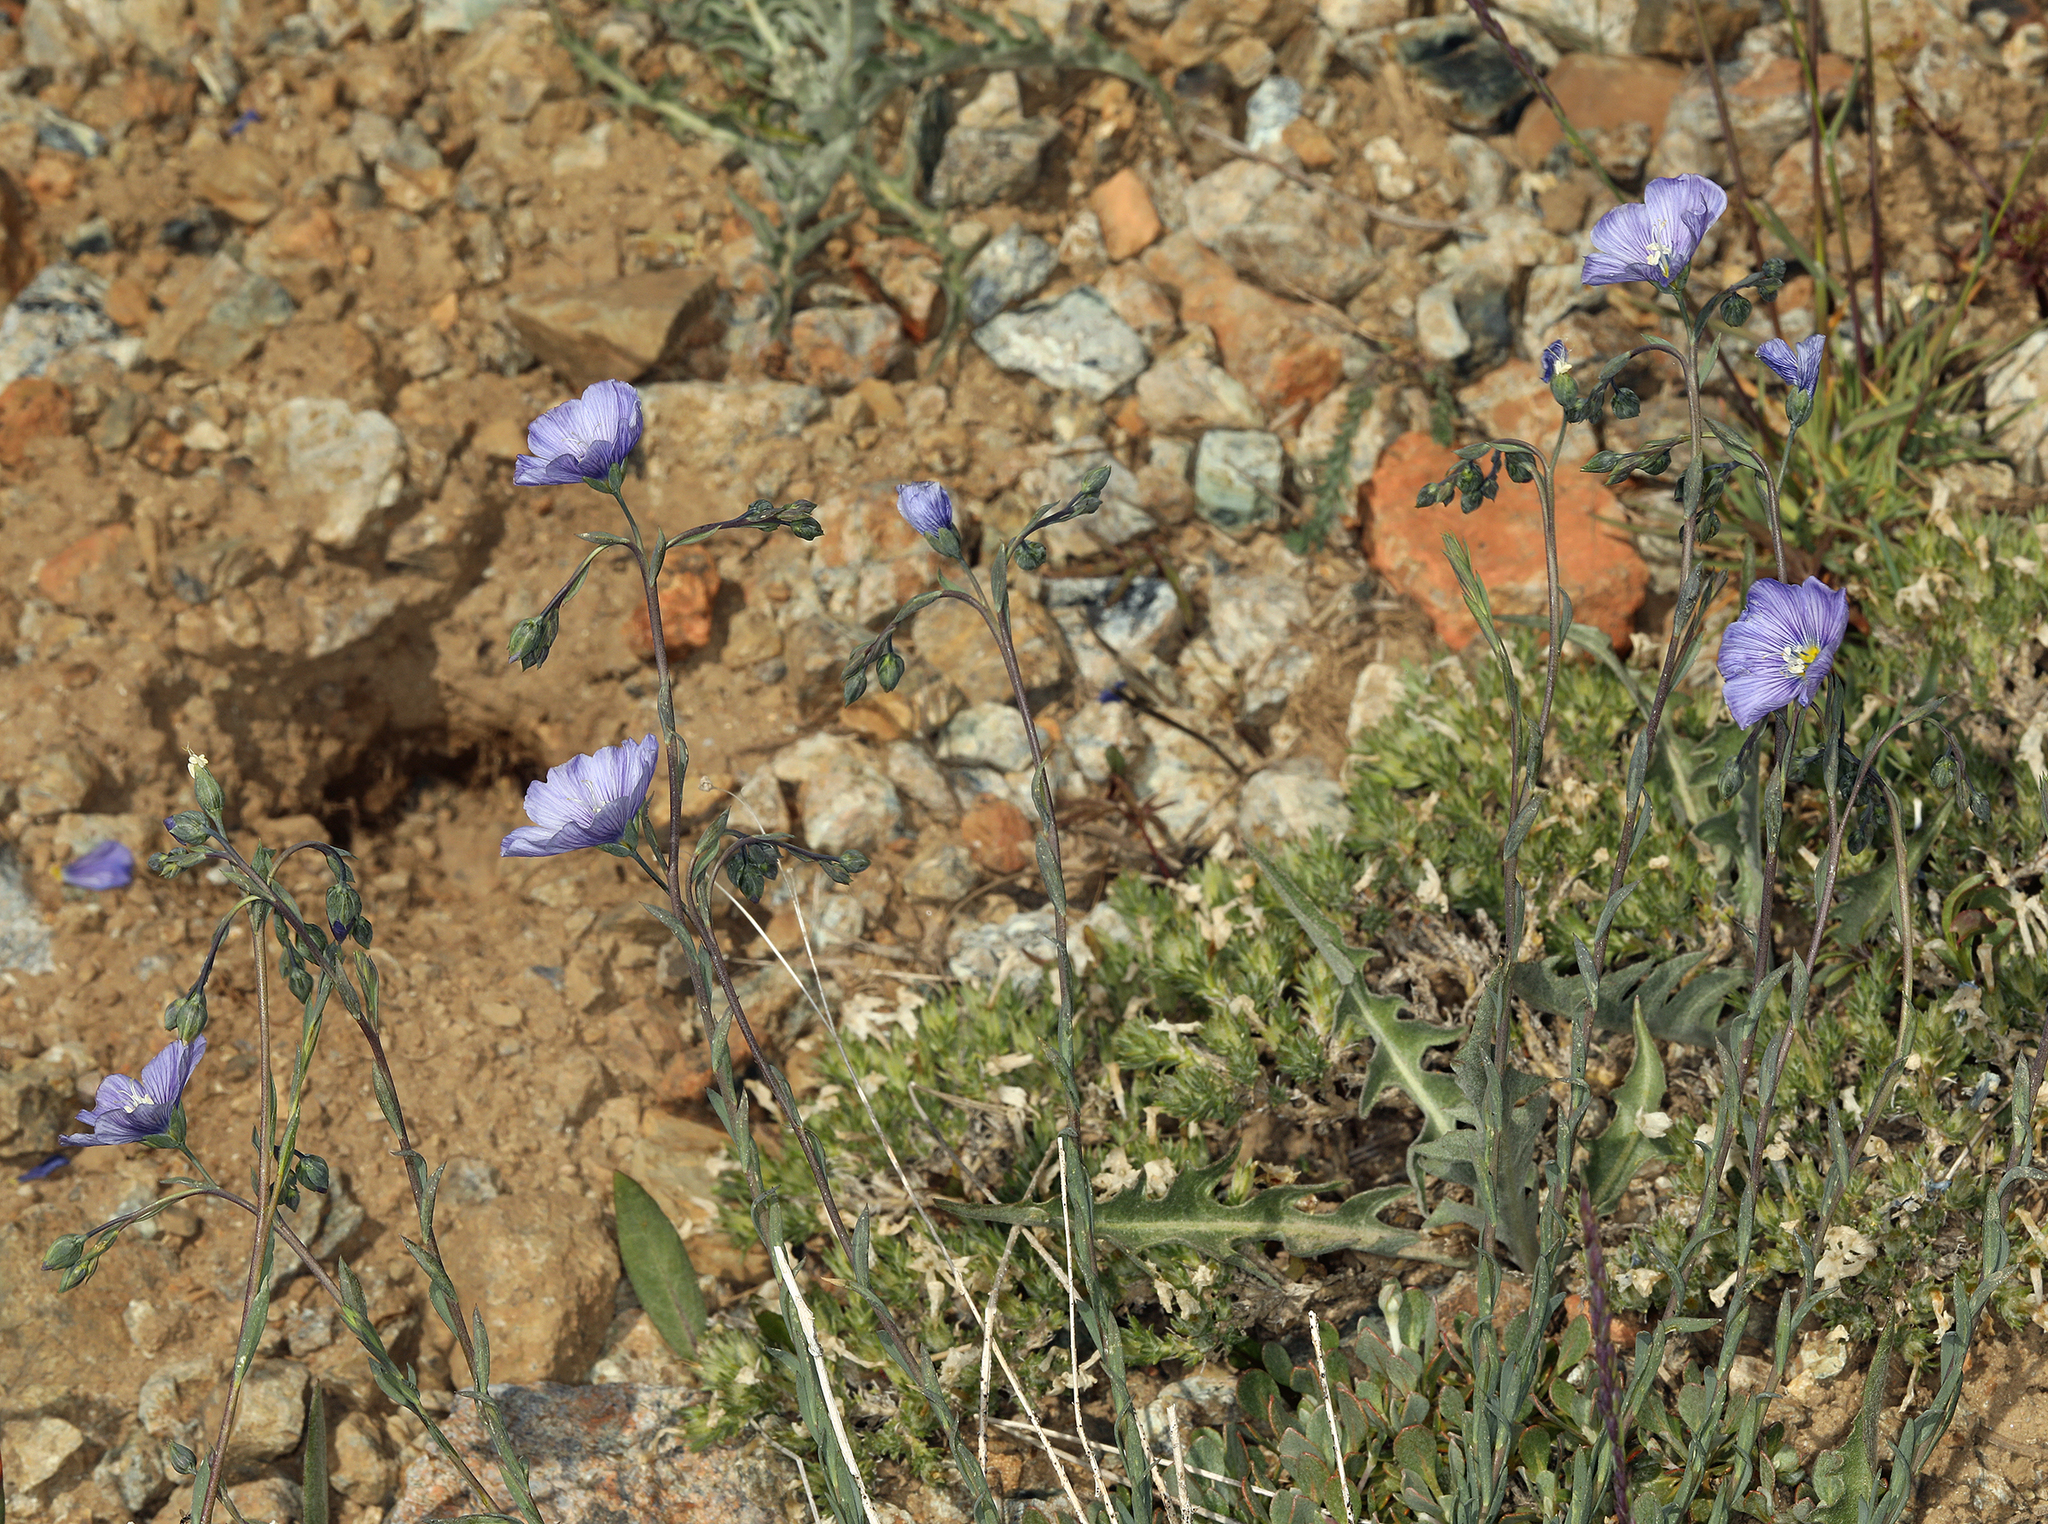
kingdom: Plantae
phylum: Tracheophyta
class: Magnoliopsida
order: Malpighiales
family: Linaceae
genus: Linum
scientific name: Linum lewisii
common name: Prairie flax
